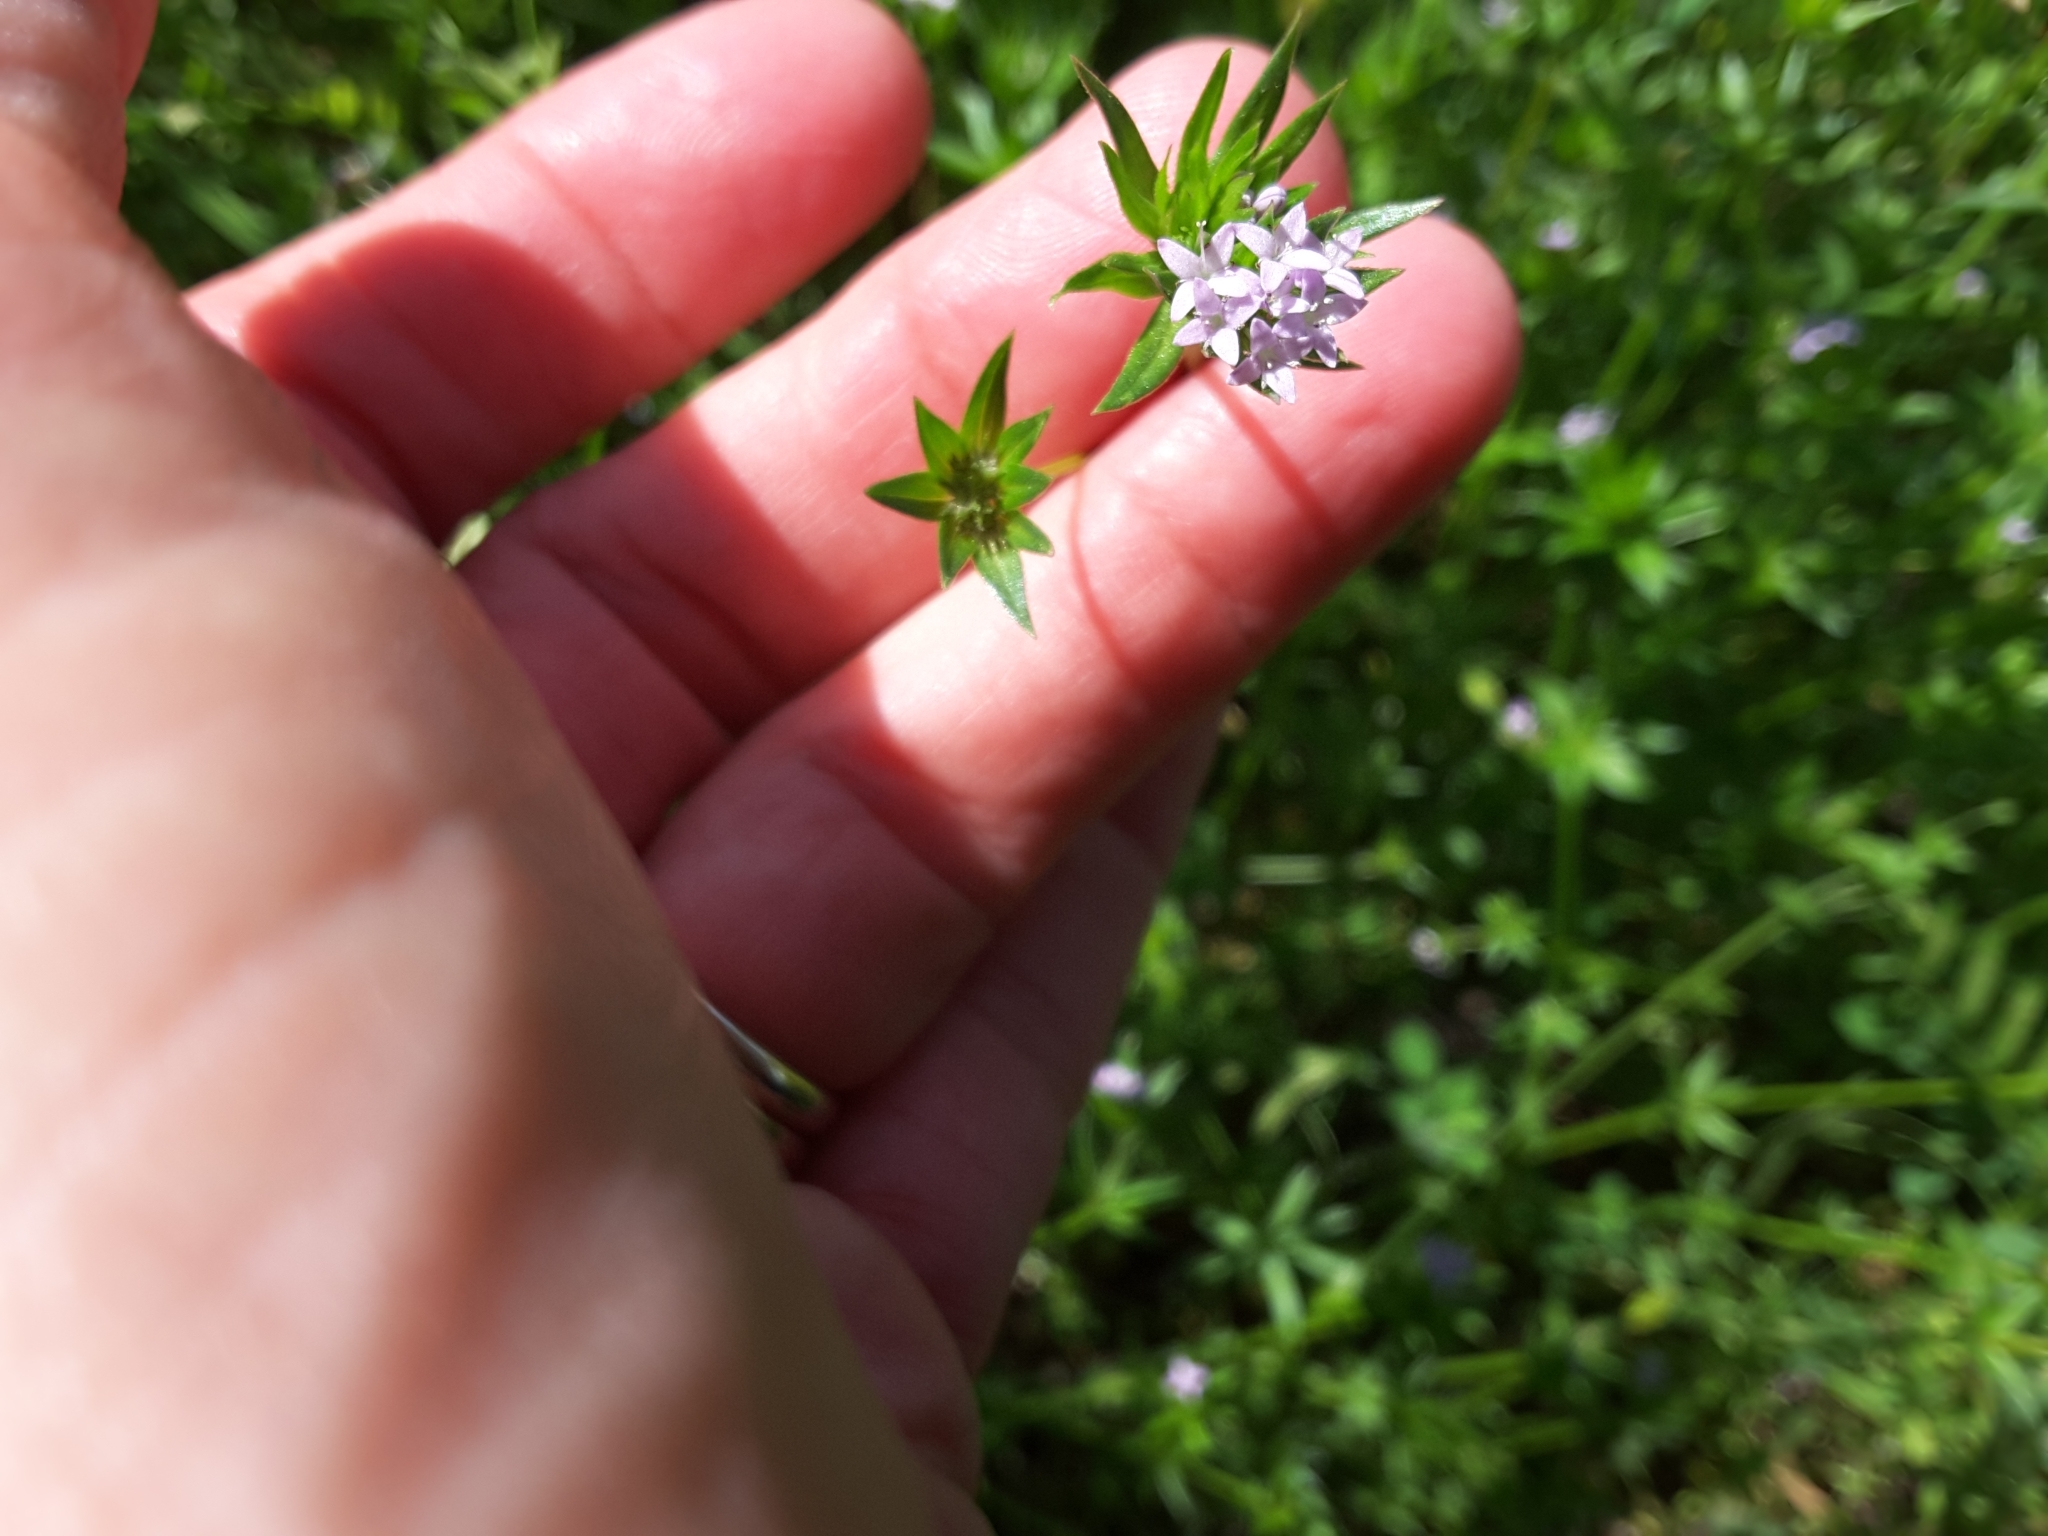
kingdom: Plantae
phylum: Tracheophyta
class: Magnoliopsida
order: Gentianales
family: Rubiaceae
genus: Sherardia
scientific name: Sherardia arvensis
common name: Field madder
